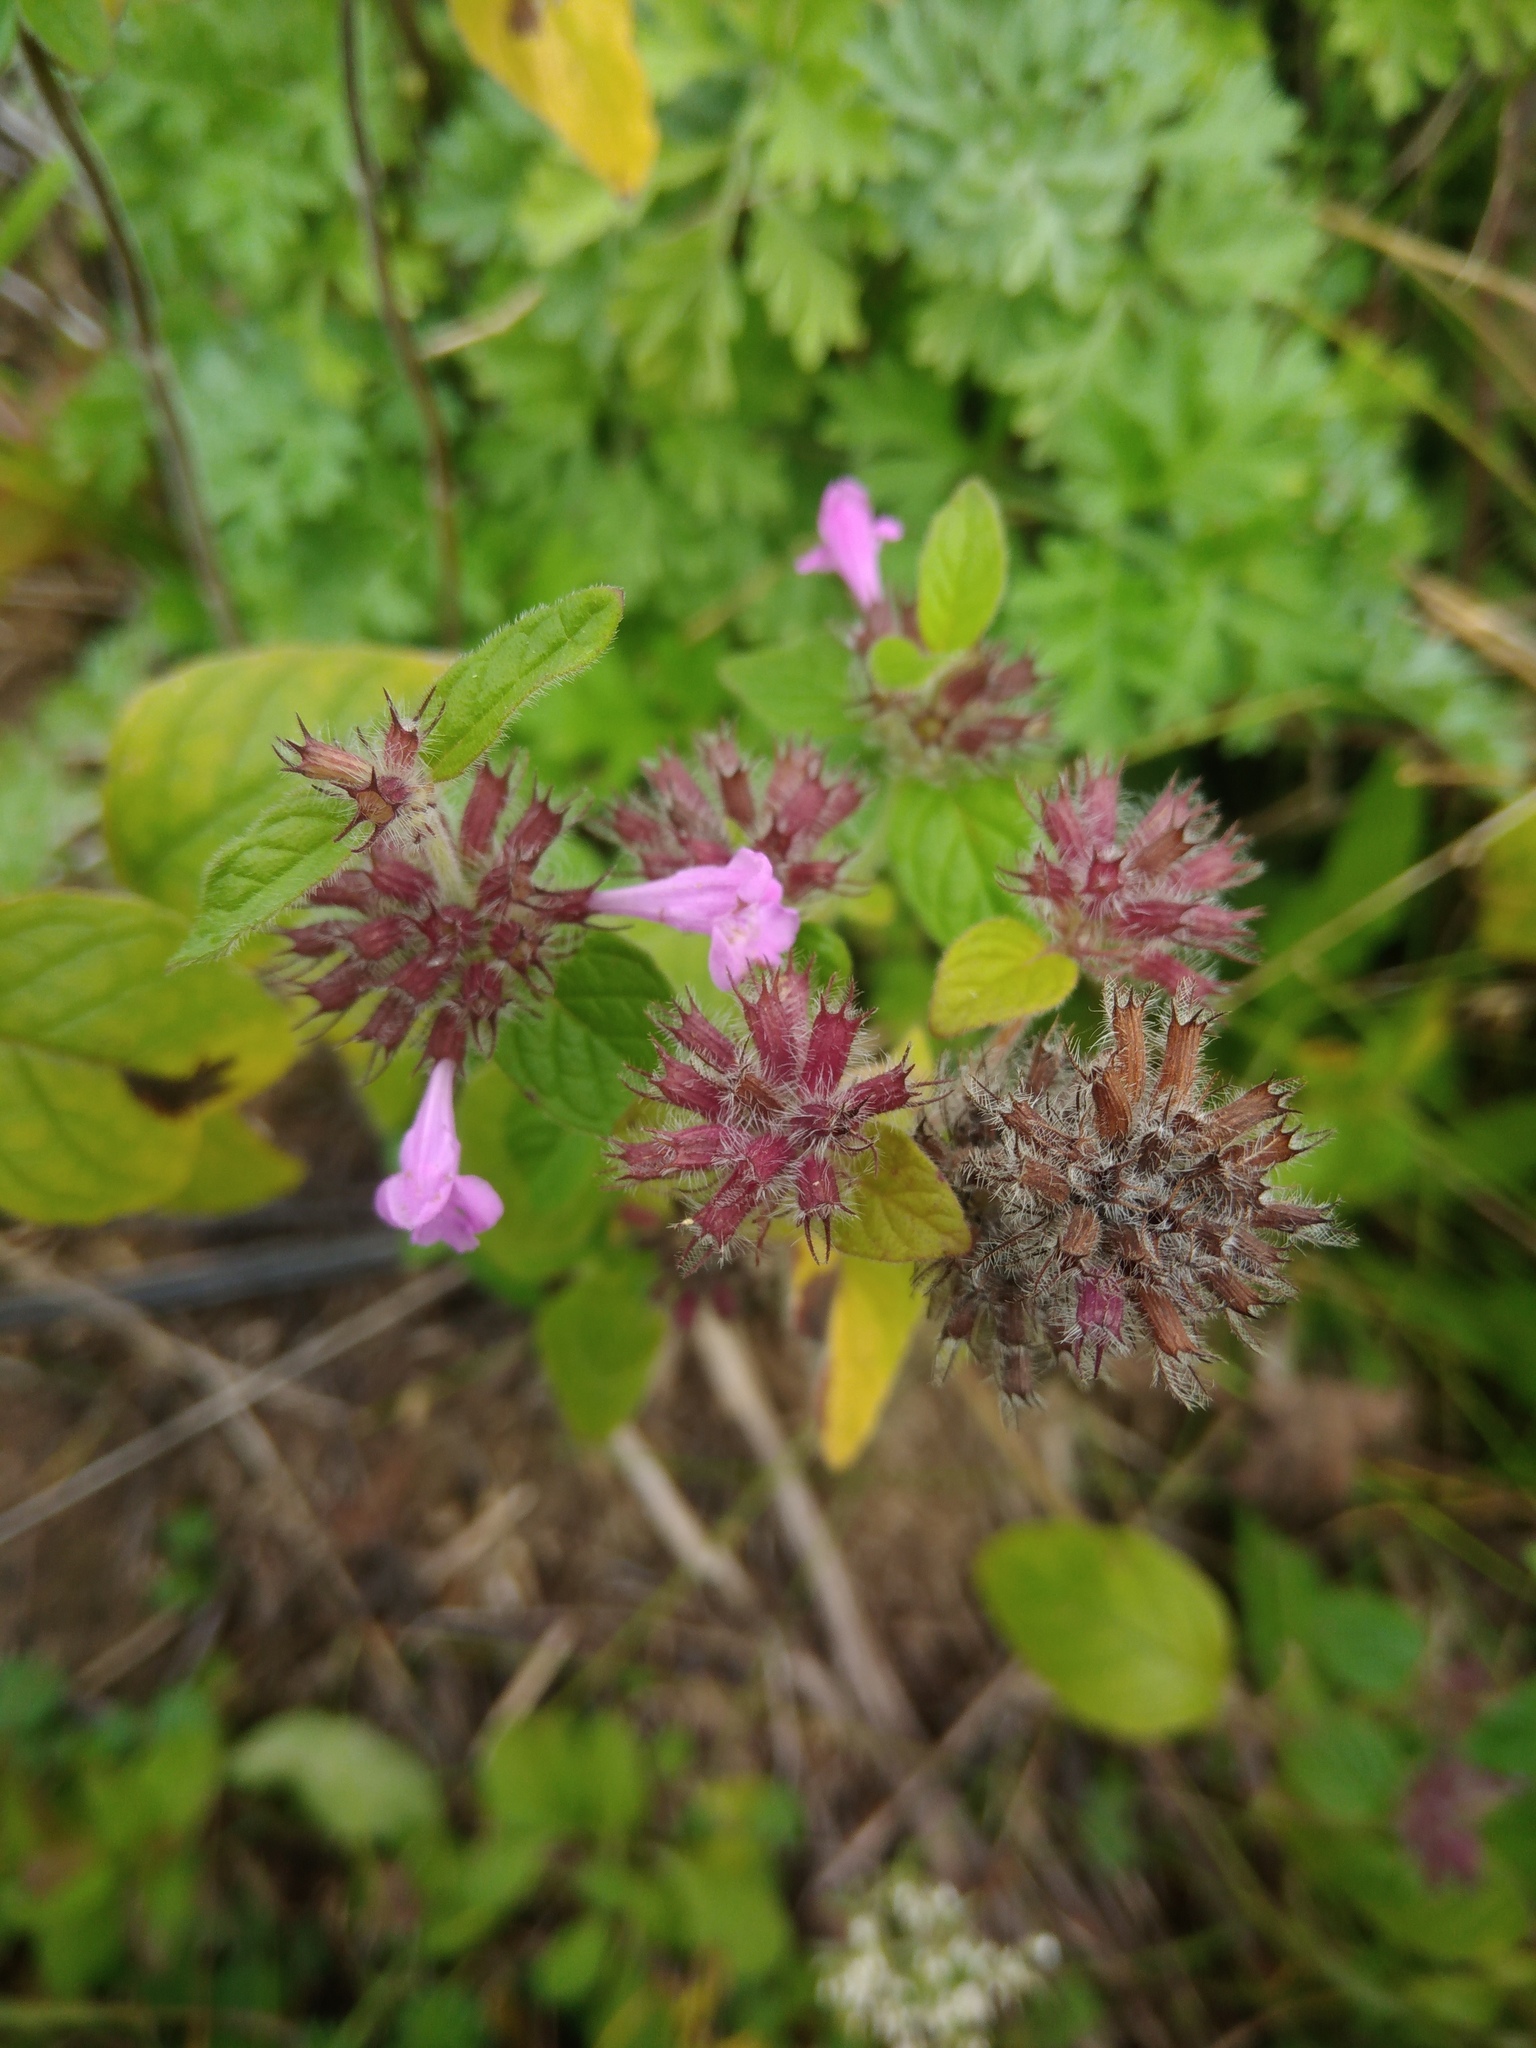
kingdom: Plantae
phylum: Tracheophyta
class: Magnoliopsida
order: Lamiales
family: Lamiaceae
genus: Clinopodium
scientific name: Clinopodium vulgare
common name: Wild basil
